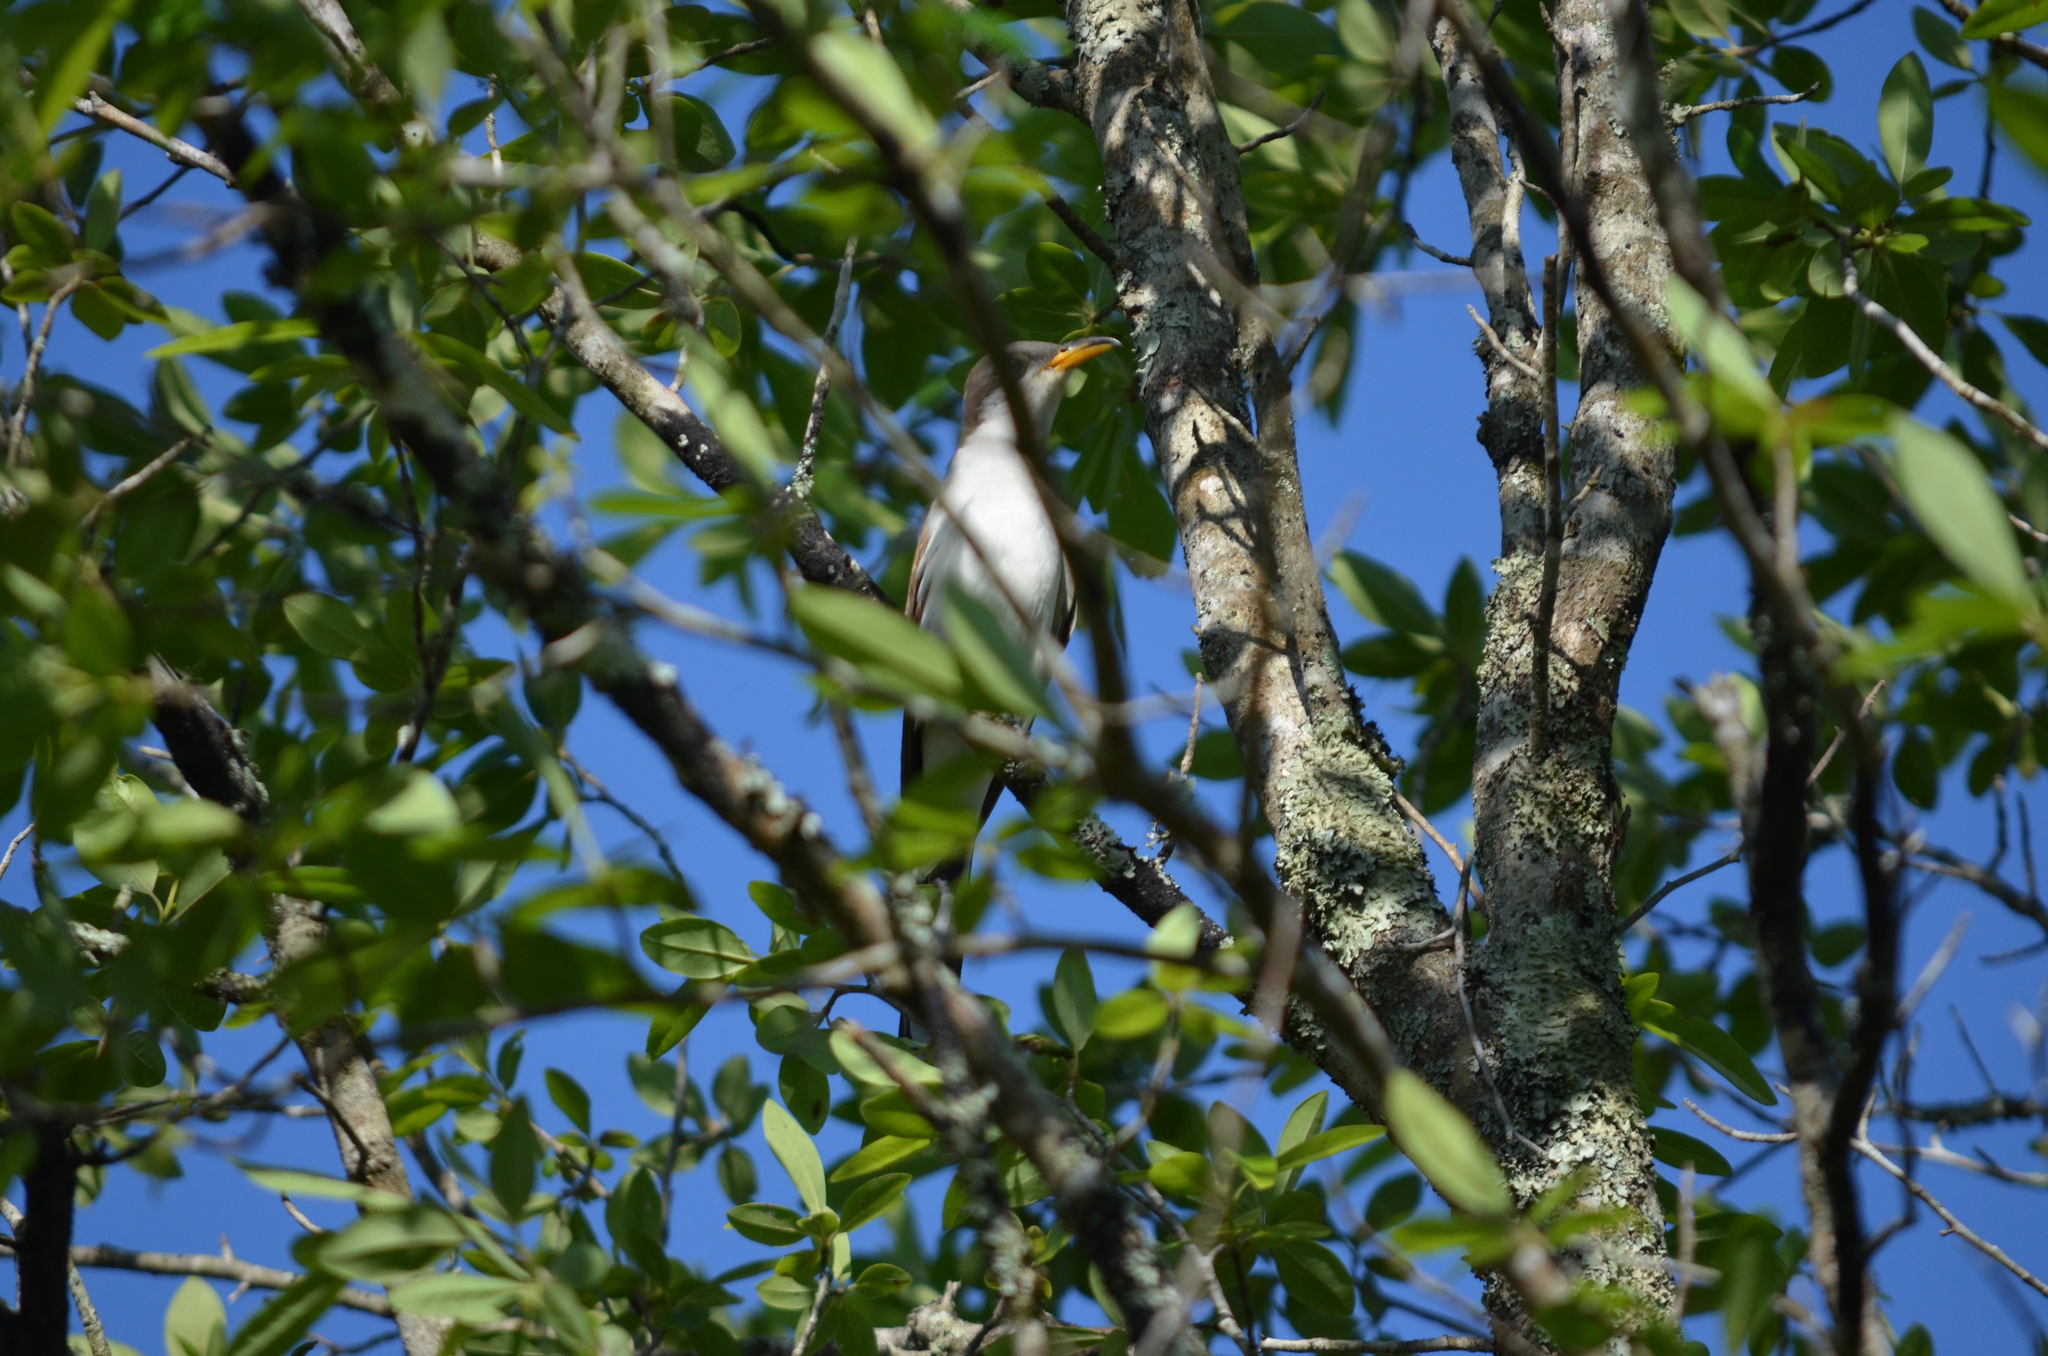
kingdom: Animalia
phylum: Chordata
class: Aves
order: Cuculiformes
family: Cuculidae
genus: Coccyzus
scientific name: Coccyzus americanus
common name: Yellow-billed cuckoo
